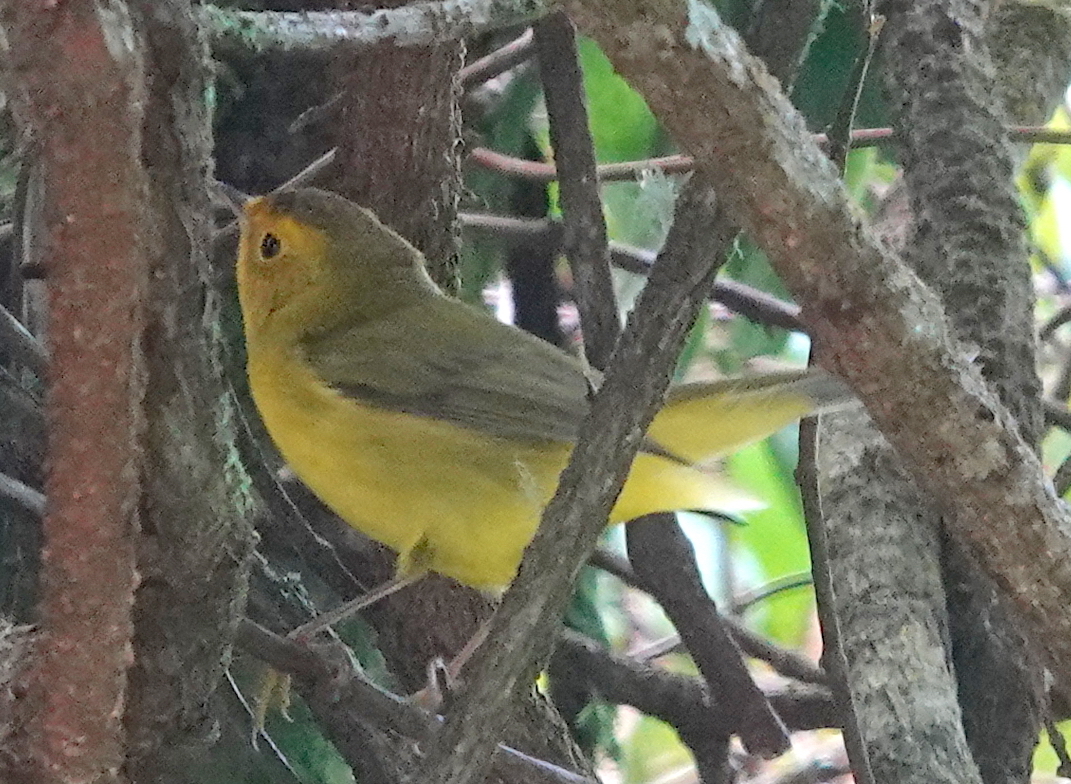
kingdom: Animalia
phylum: Chordata
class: Aves
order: Passeriformes
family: Parulidae
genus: Cardellina
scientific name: Cardellina pusilla
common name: Wilson's warbler
